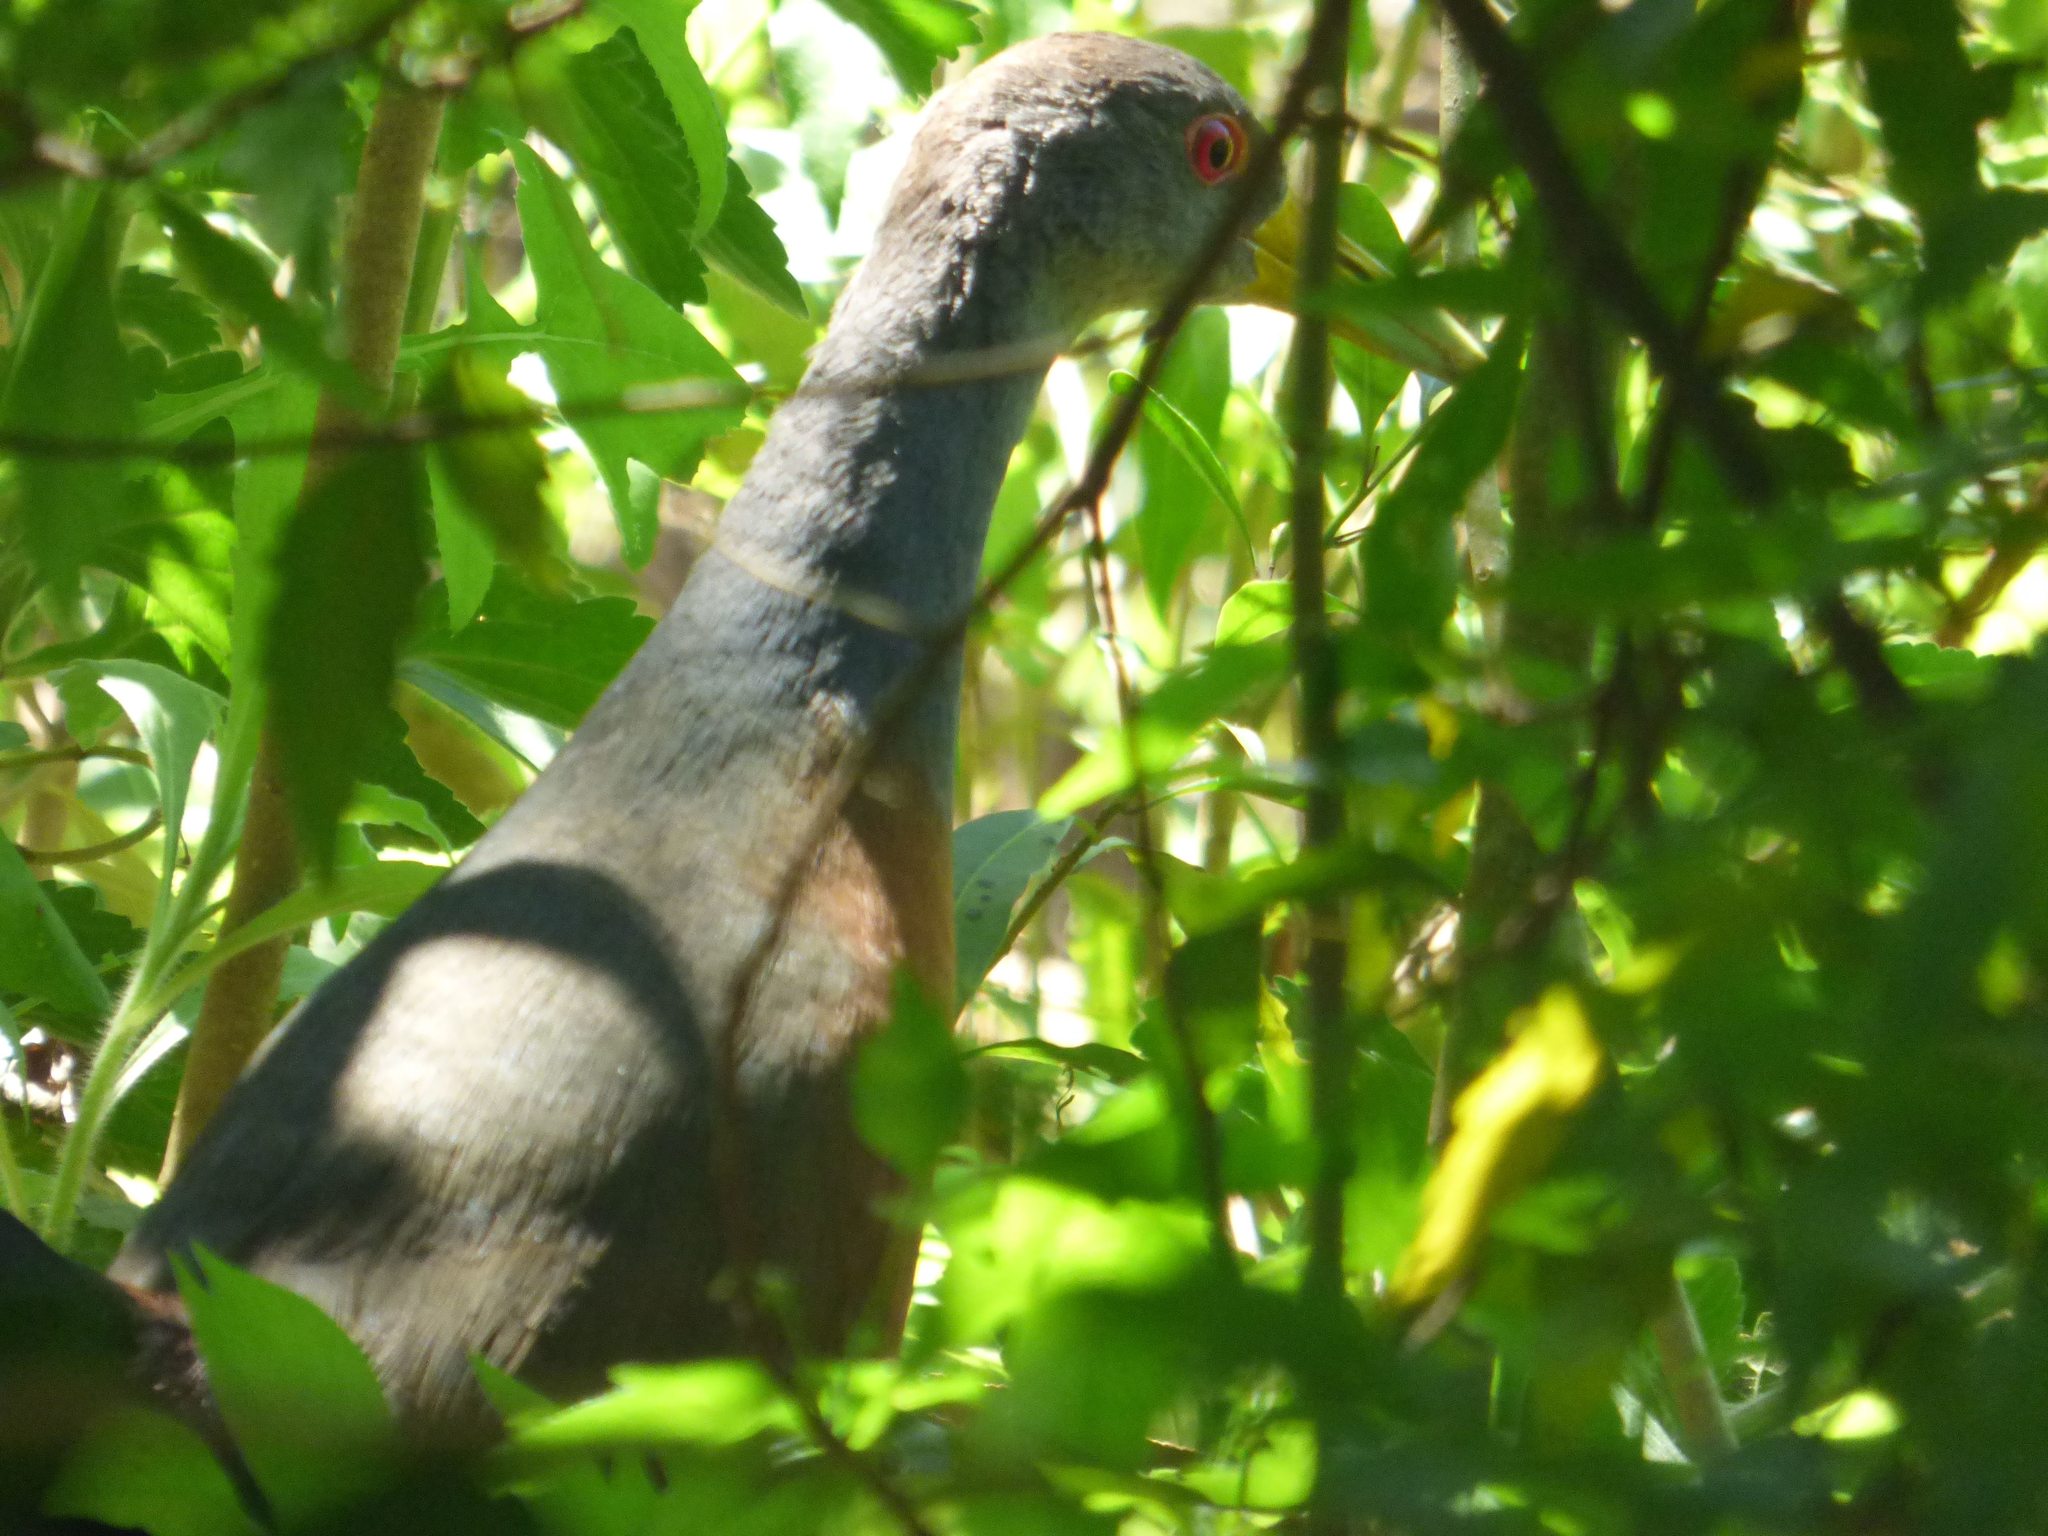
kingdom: Animalia
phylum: Chordata
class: Aves
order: Gruiformes
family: Rallidae
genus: Aramides
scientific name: Aramides cajanea
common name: Gray-necked wood-rail
